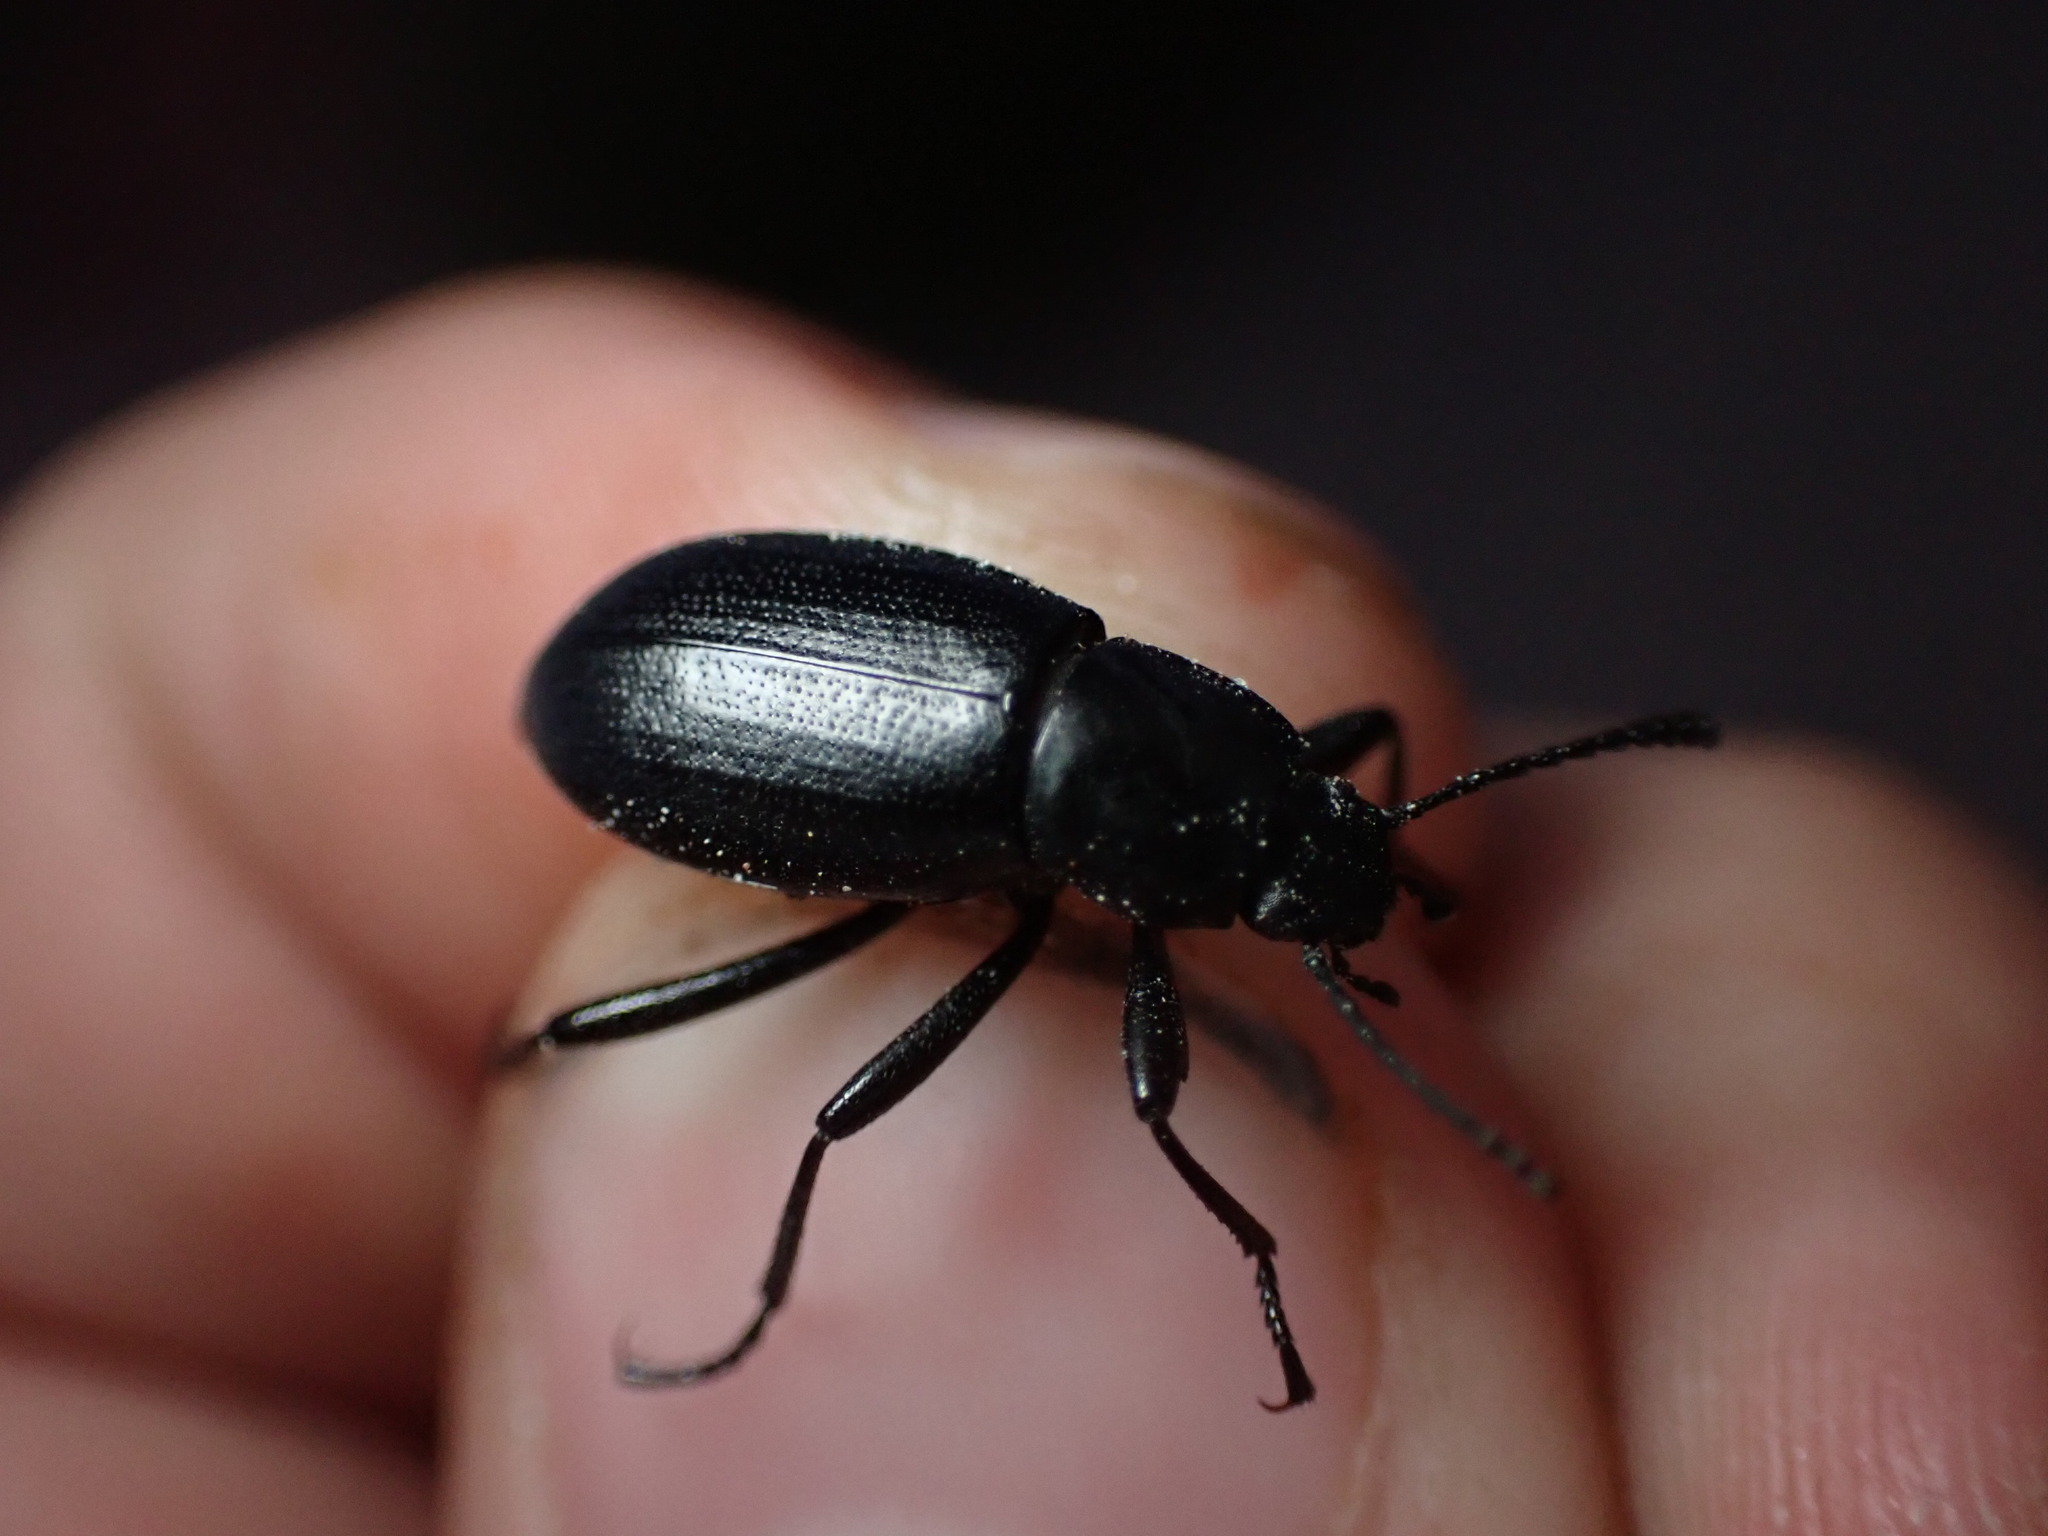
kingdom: Animalia
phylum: Arthropoda
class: Insecta
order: Coleoptera
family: Tenebrionidae
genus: Eleodes
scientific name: Eleodes extricata
